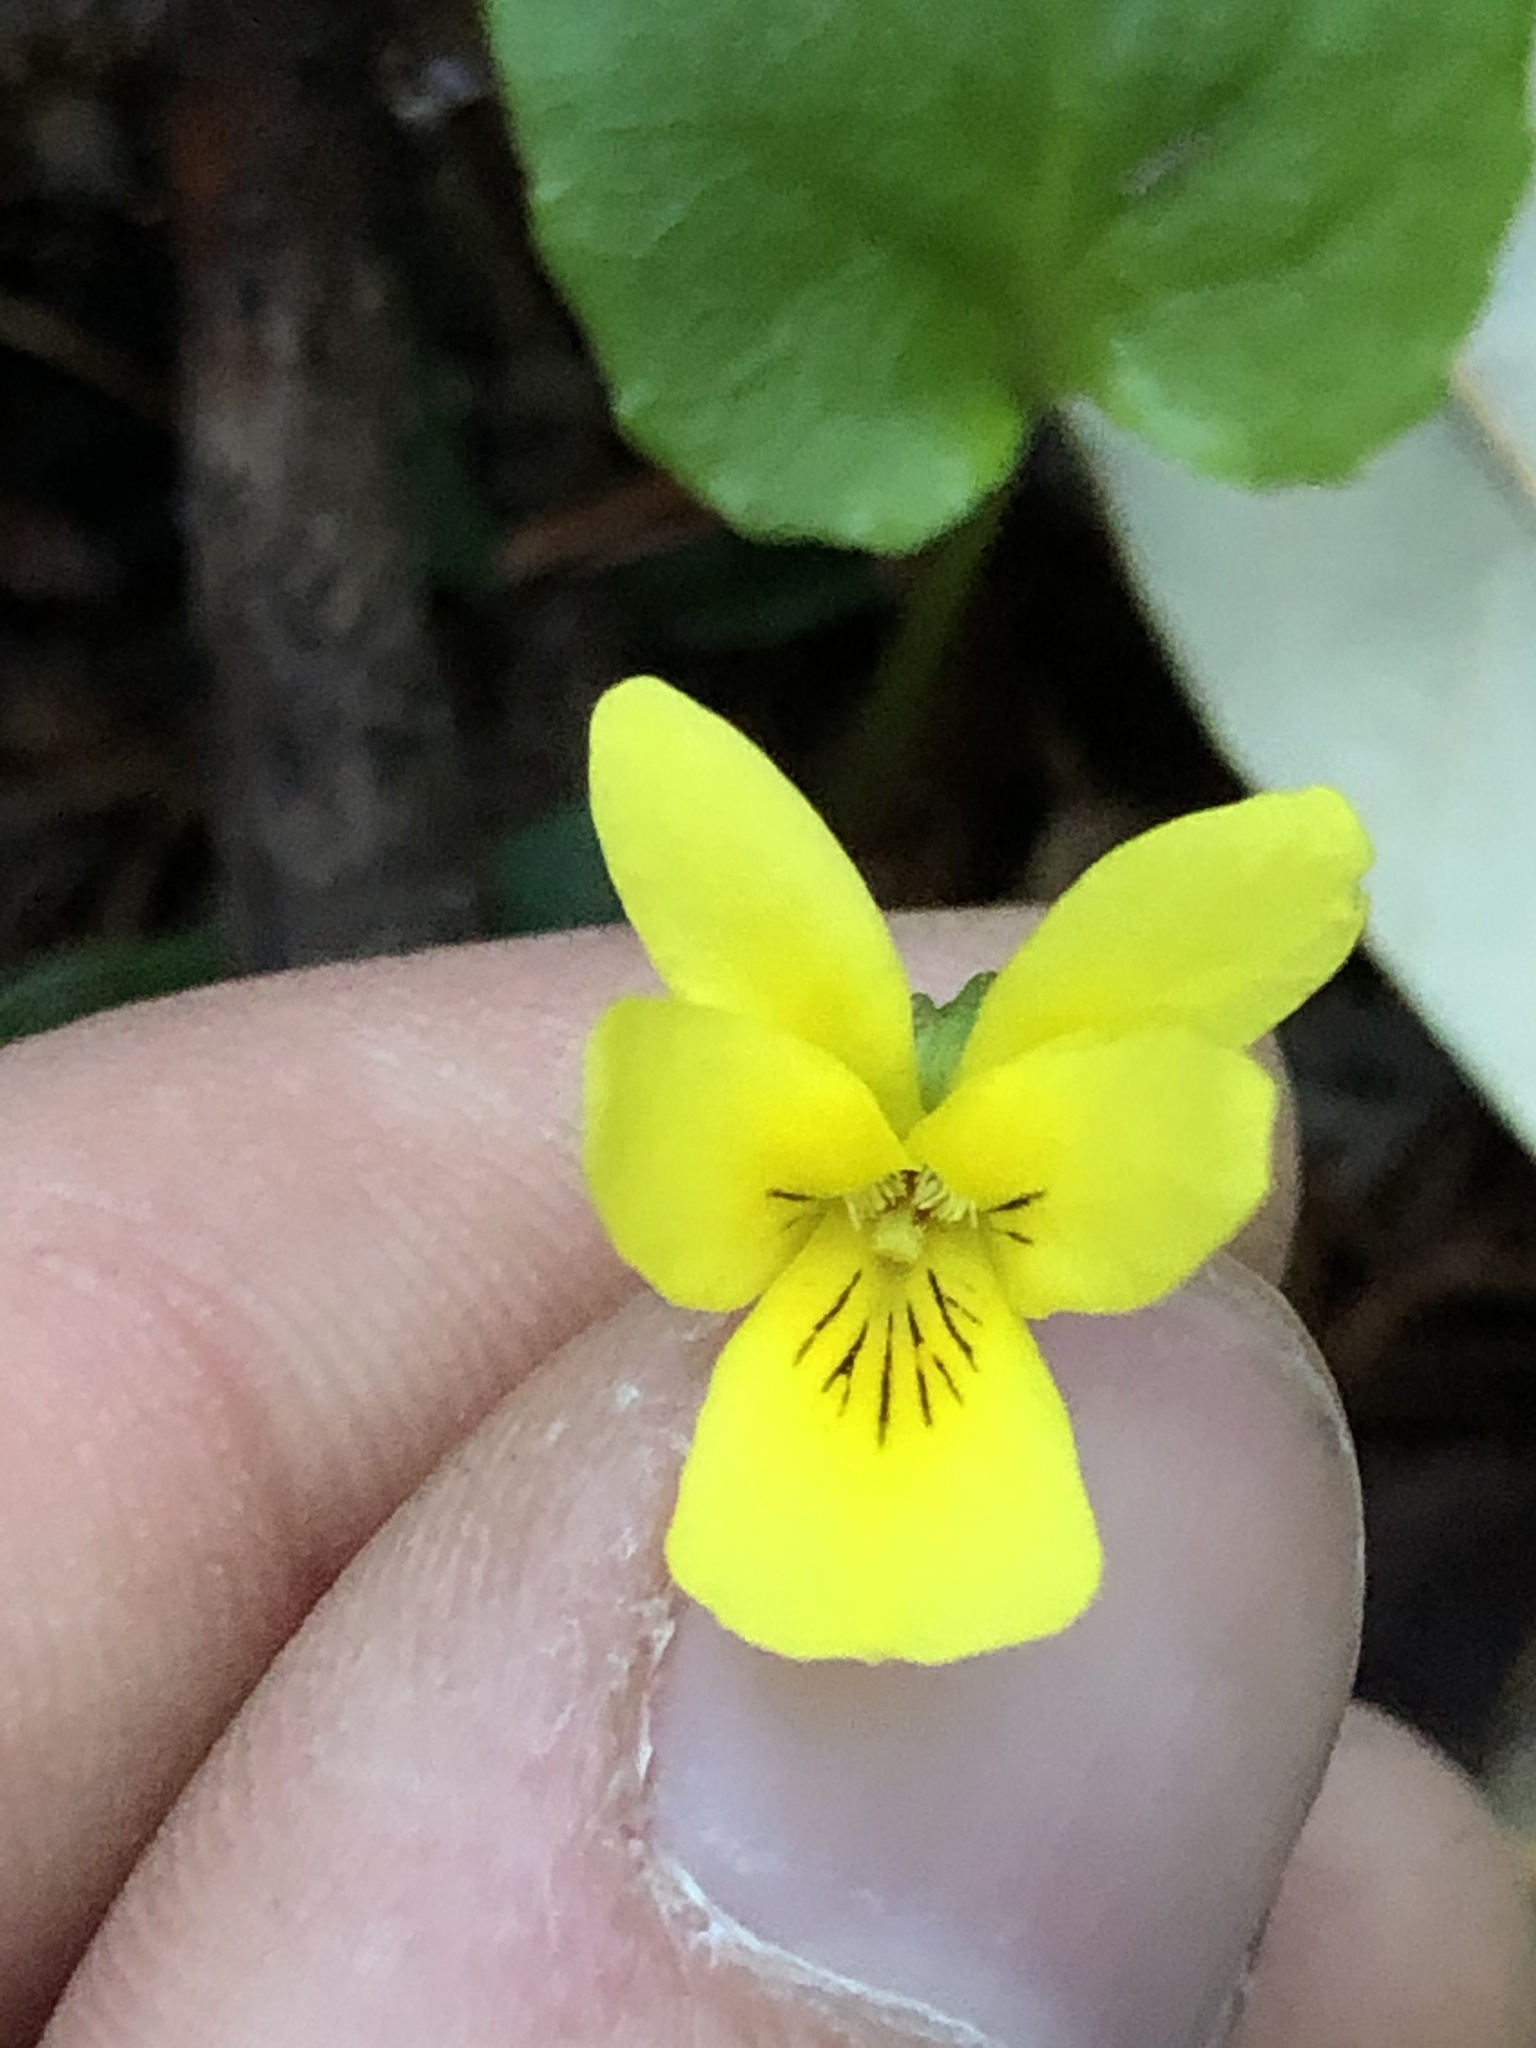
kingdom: Plantae
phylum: Tracheophyta
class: Magnoliopsida
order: Malpighiales
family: Violaceae
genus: Viola
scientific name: Viola sempervirens
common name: Evergreen violet
